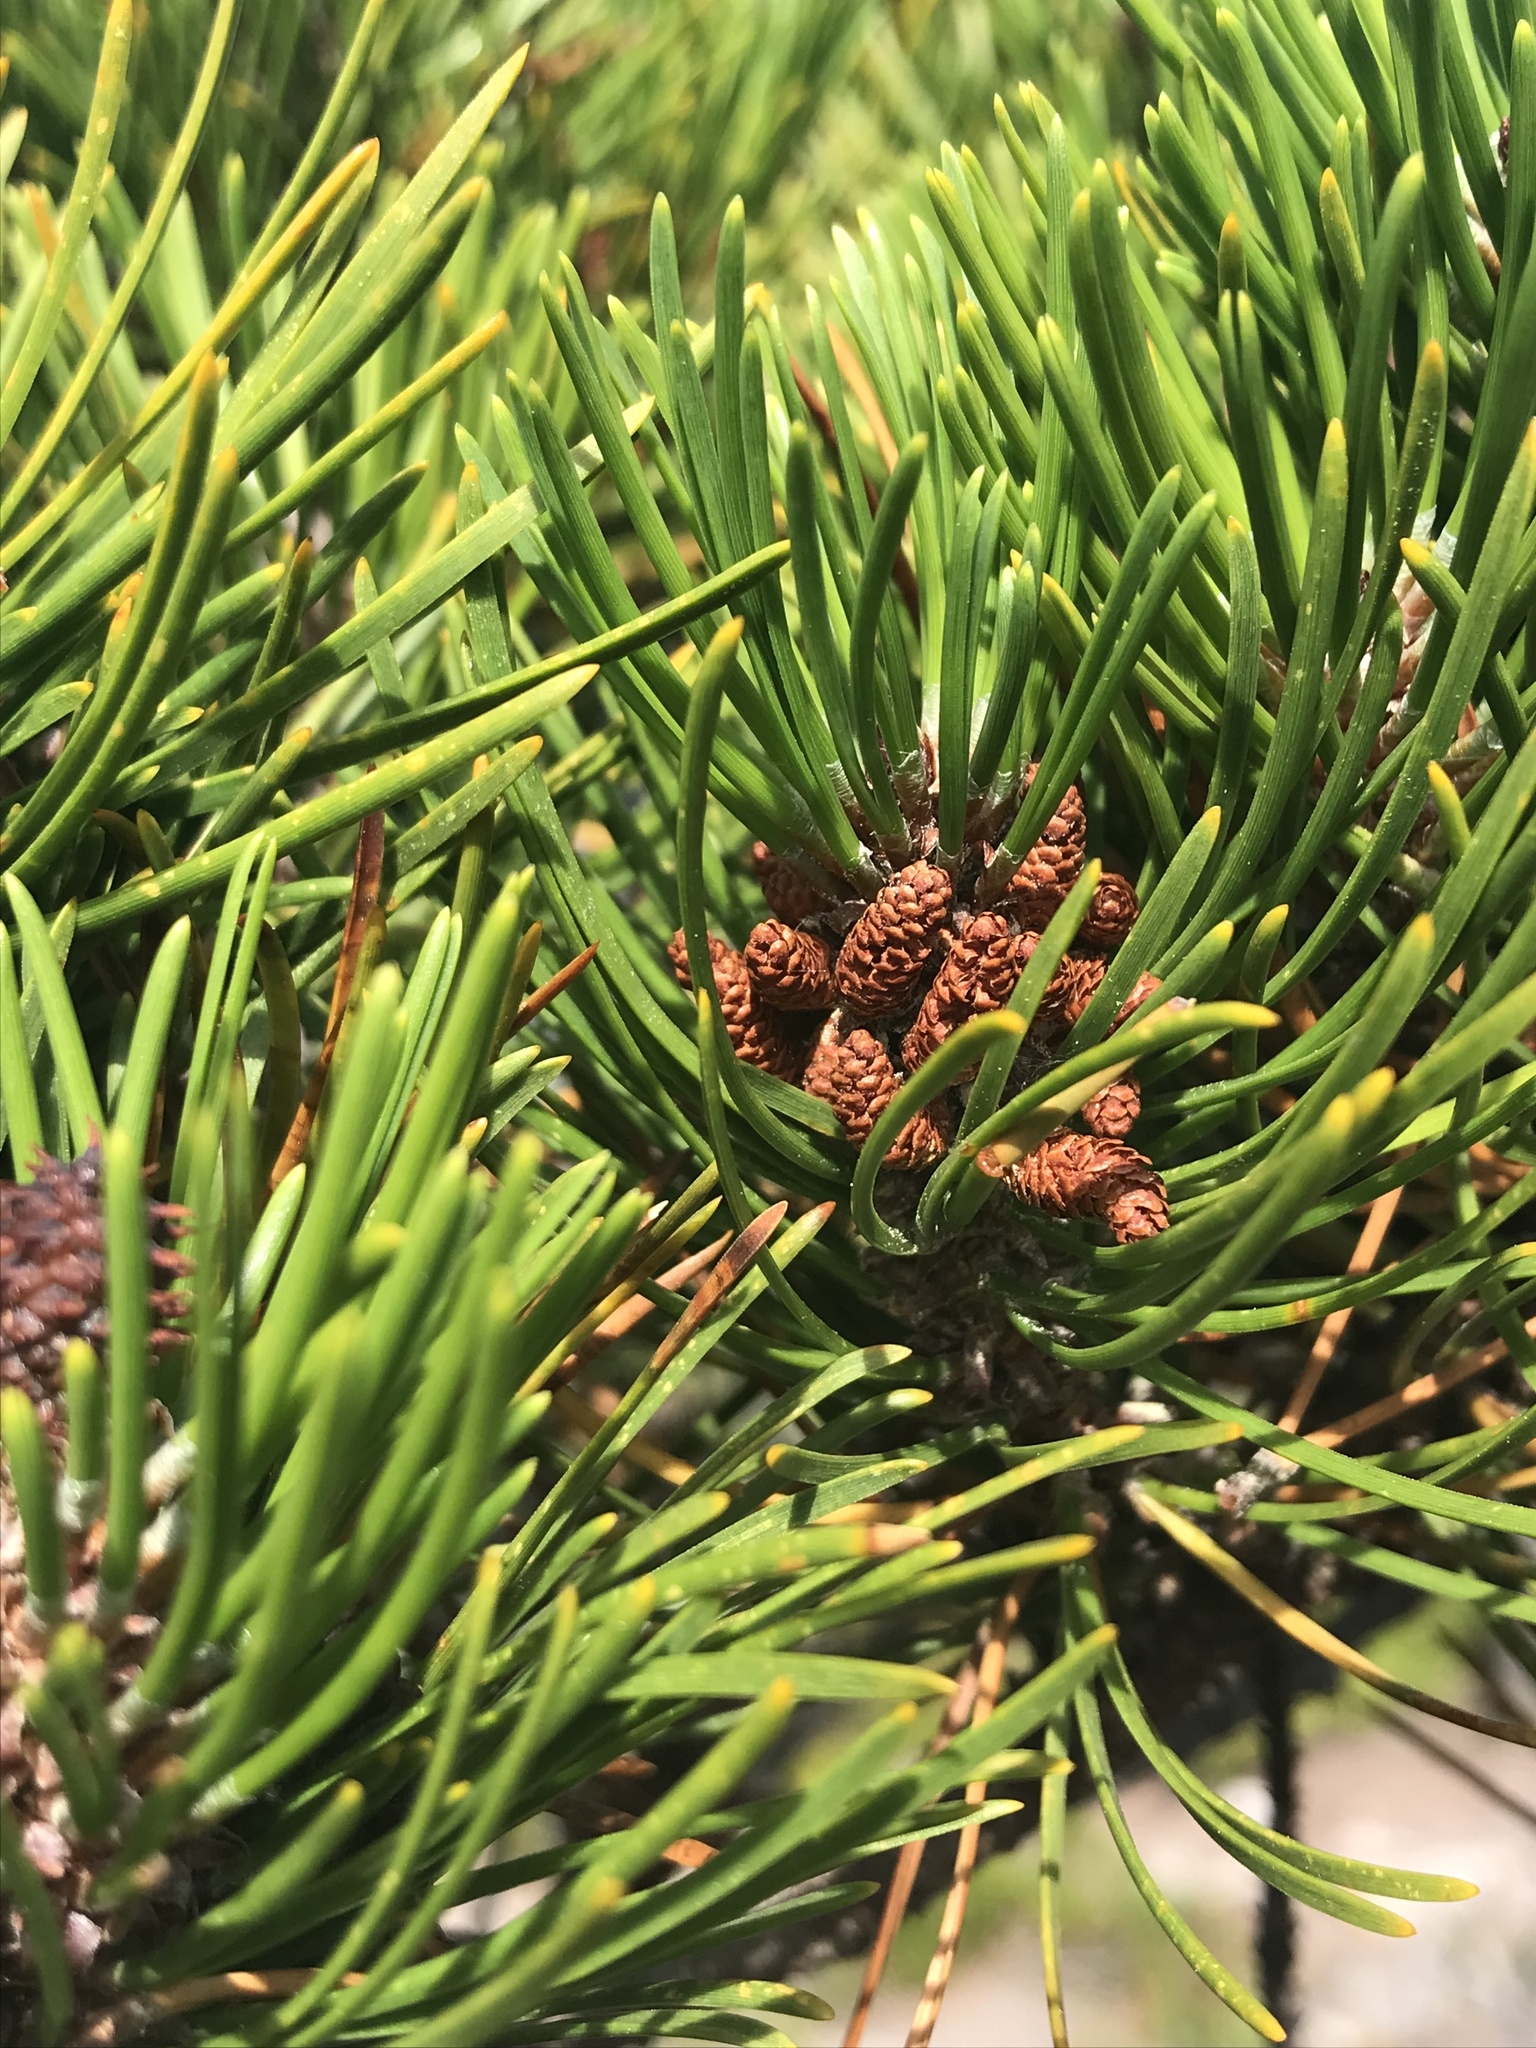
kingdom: Plantae
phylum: Tracheophyta
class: Pinopsida
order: Pinales
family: Pinaceae
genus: Pinus
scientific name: Pinus contorta
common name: Lodgepole pine
